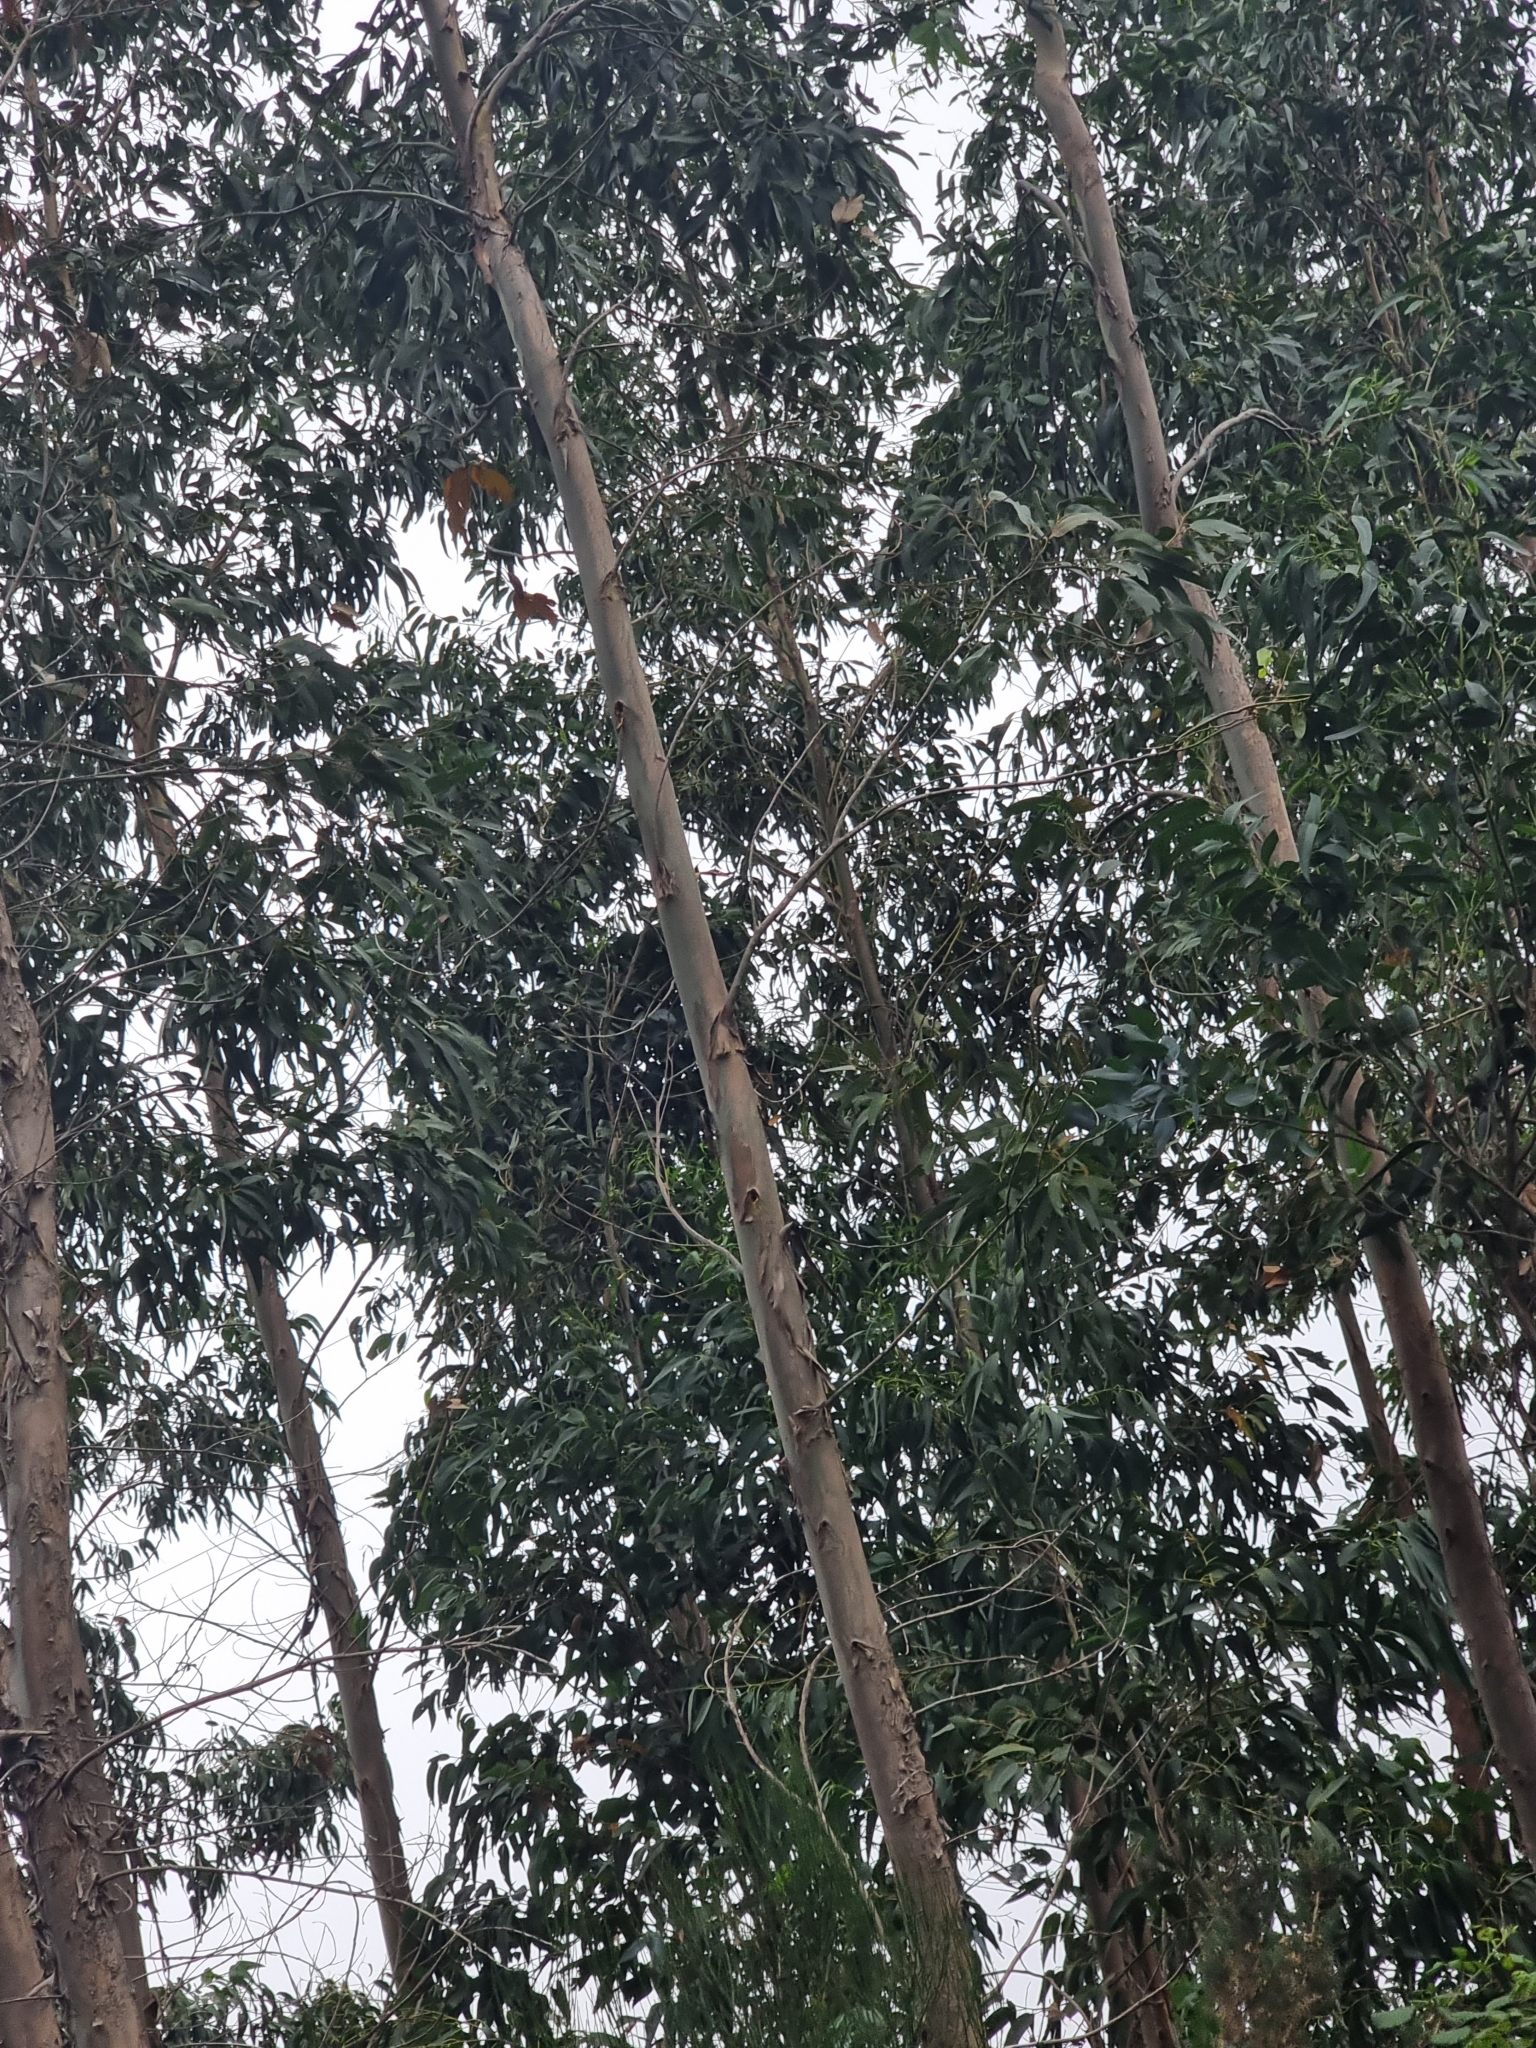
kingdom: Plantae
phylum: Tracheophyta
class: Magnoliopsida
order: Myrtales
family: Myrtaceae
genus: Eucalyptus
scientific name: Eucalyptus globulus
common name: Southern blue-gum
